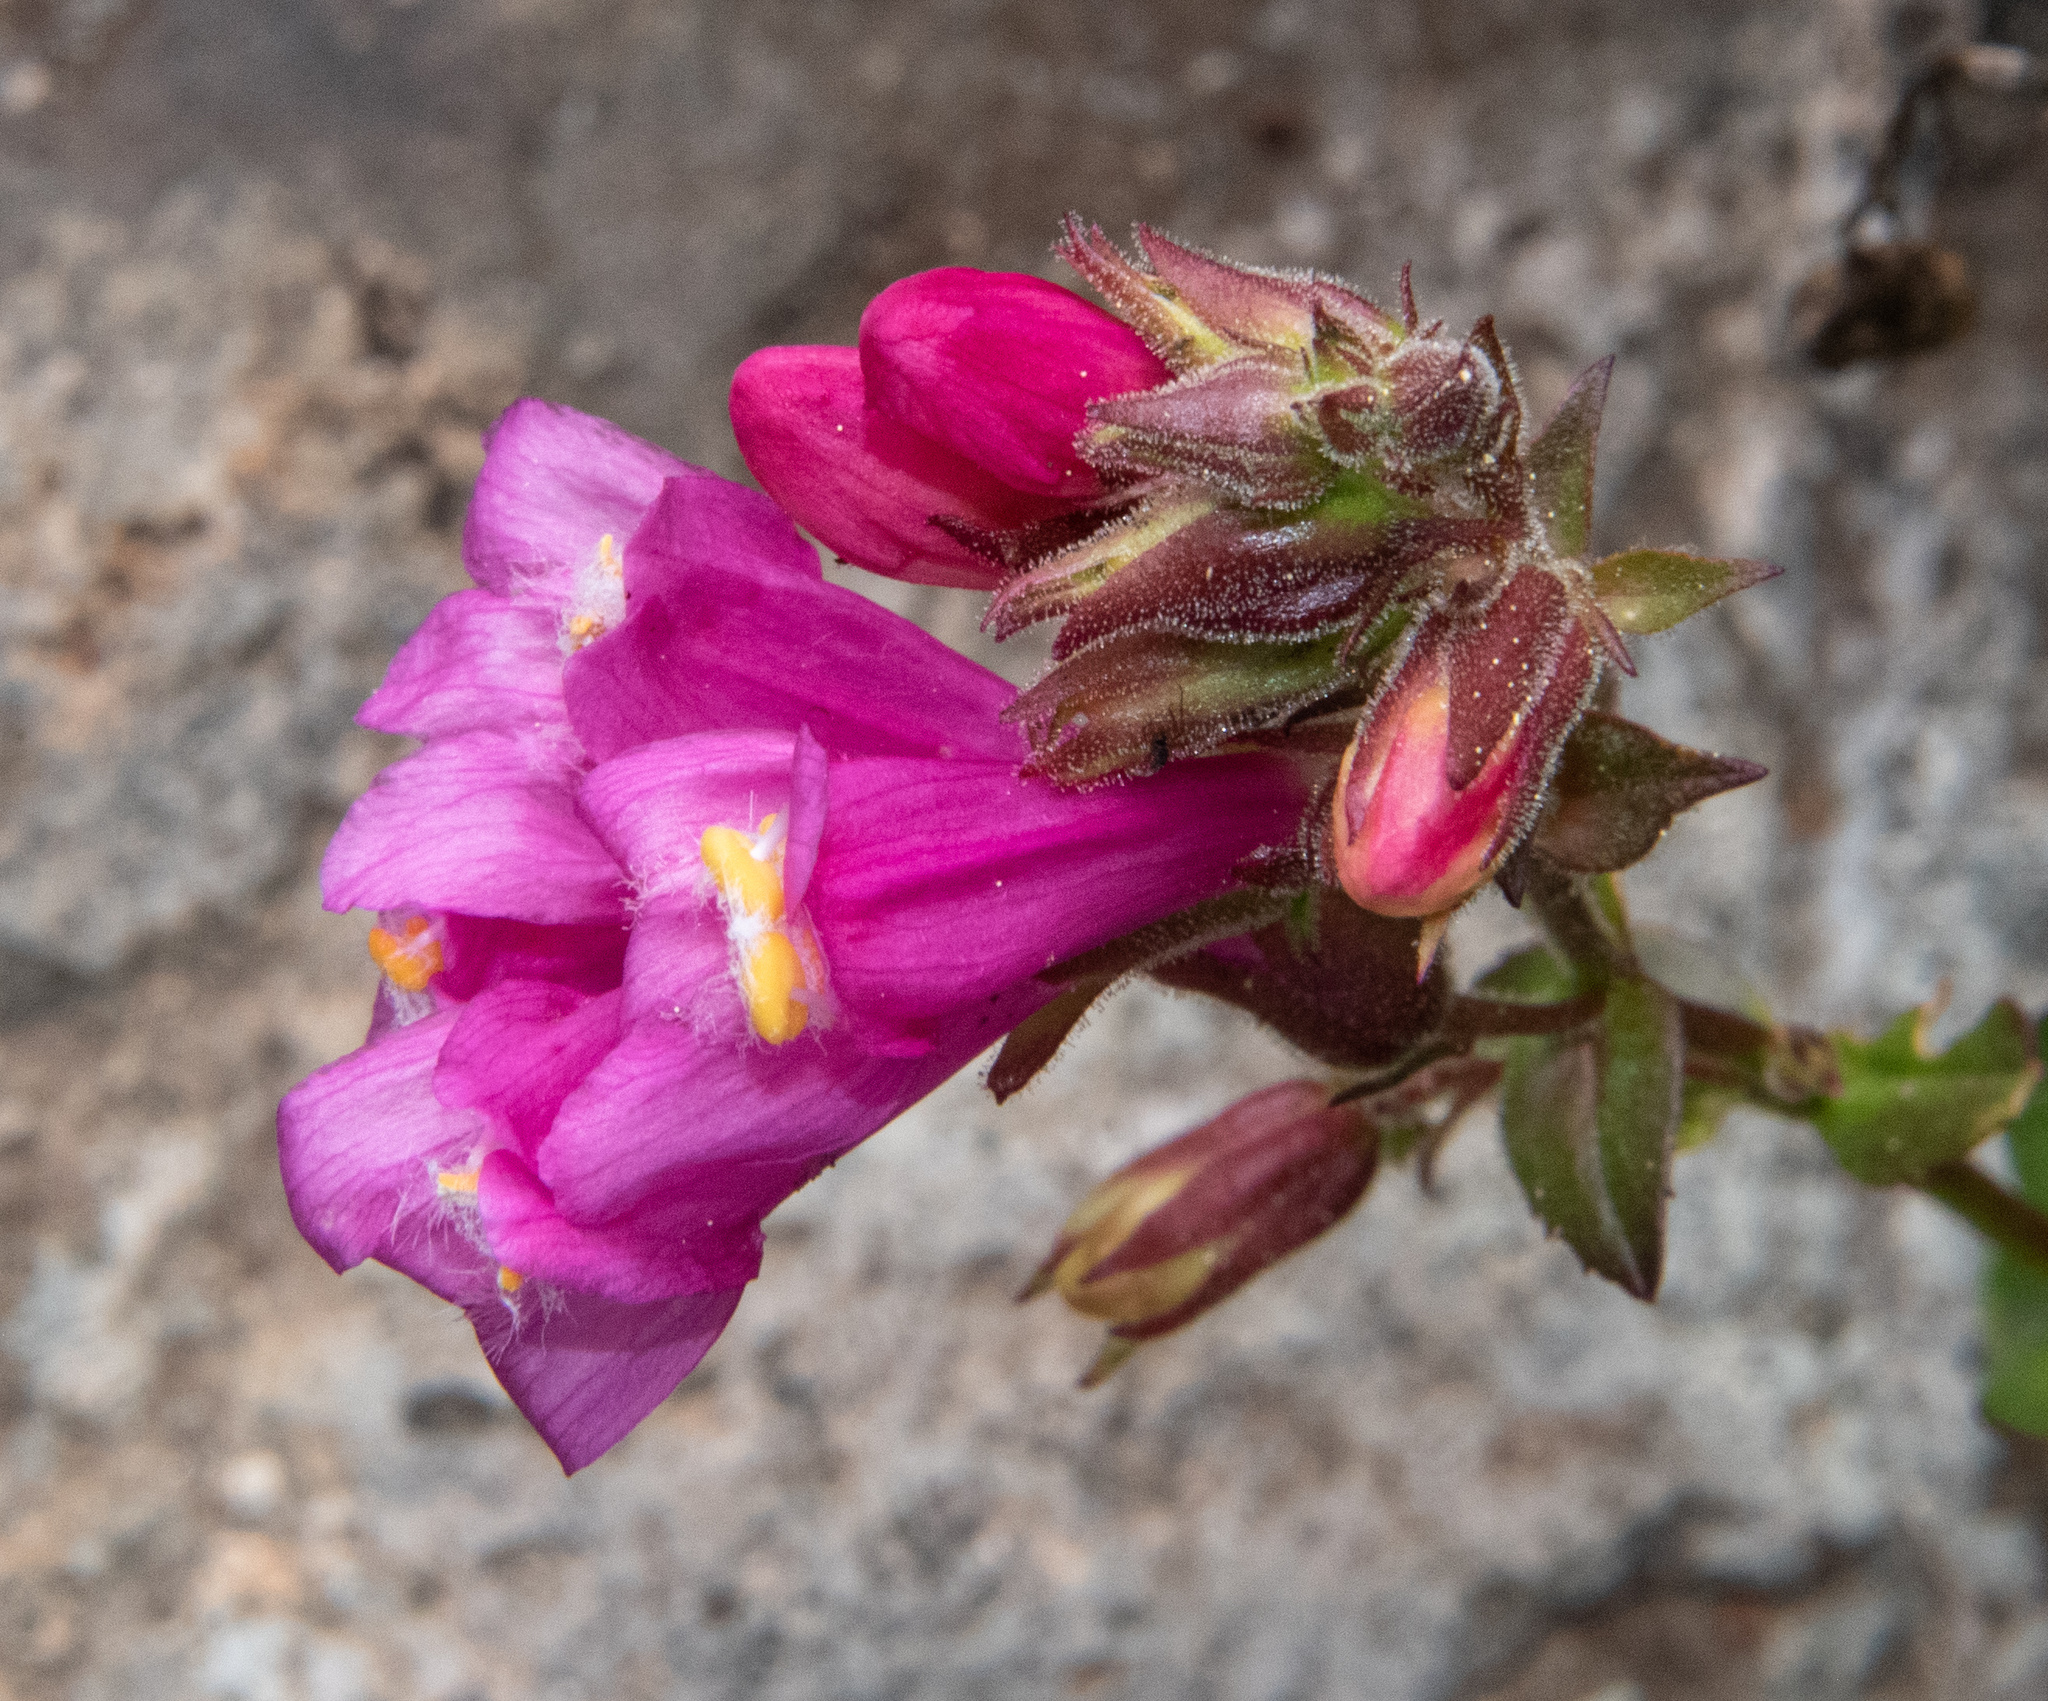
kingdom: Plantae
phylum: Tracheophyta
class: Magnoliopsida
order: Lamiales
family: Plantaginaceae
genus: Penstemon
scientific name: Penstemon newberryi
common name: Mountain-pride
